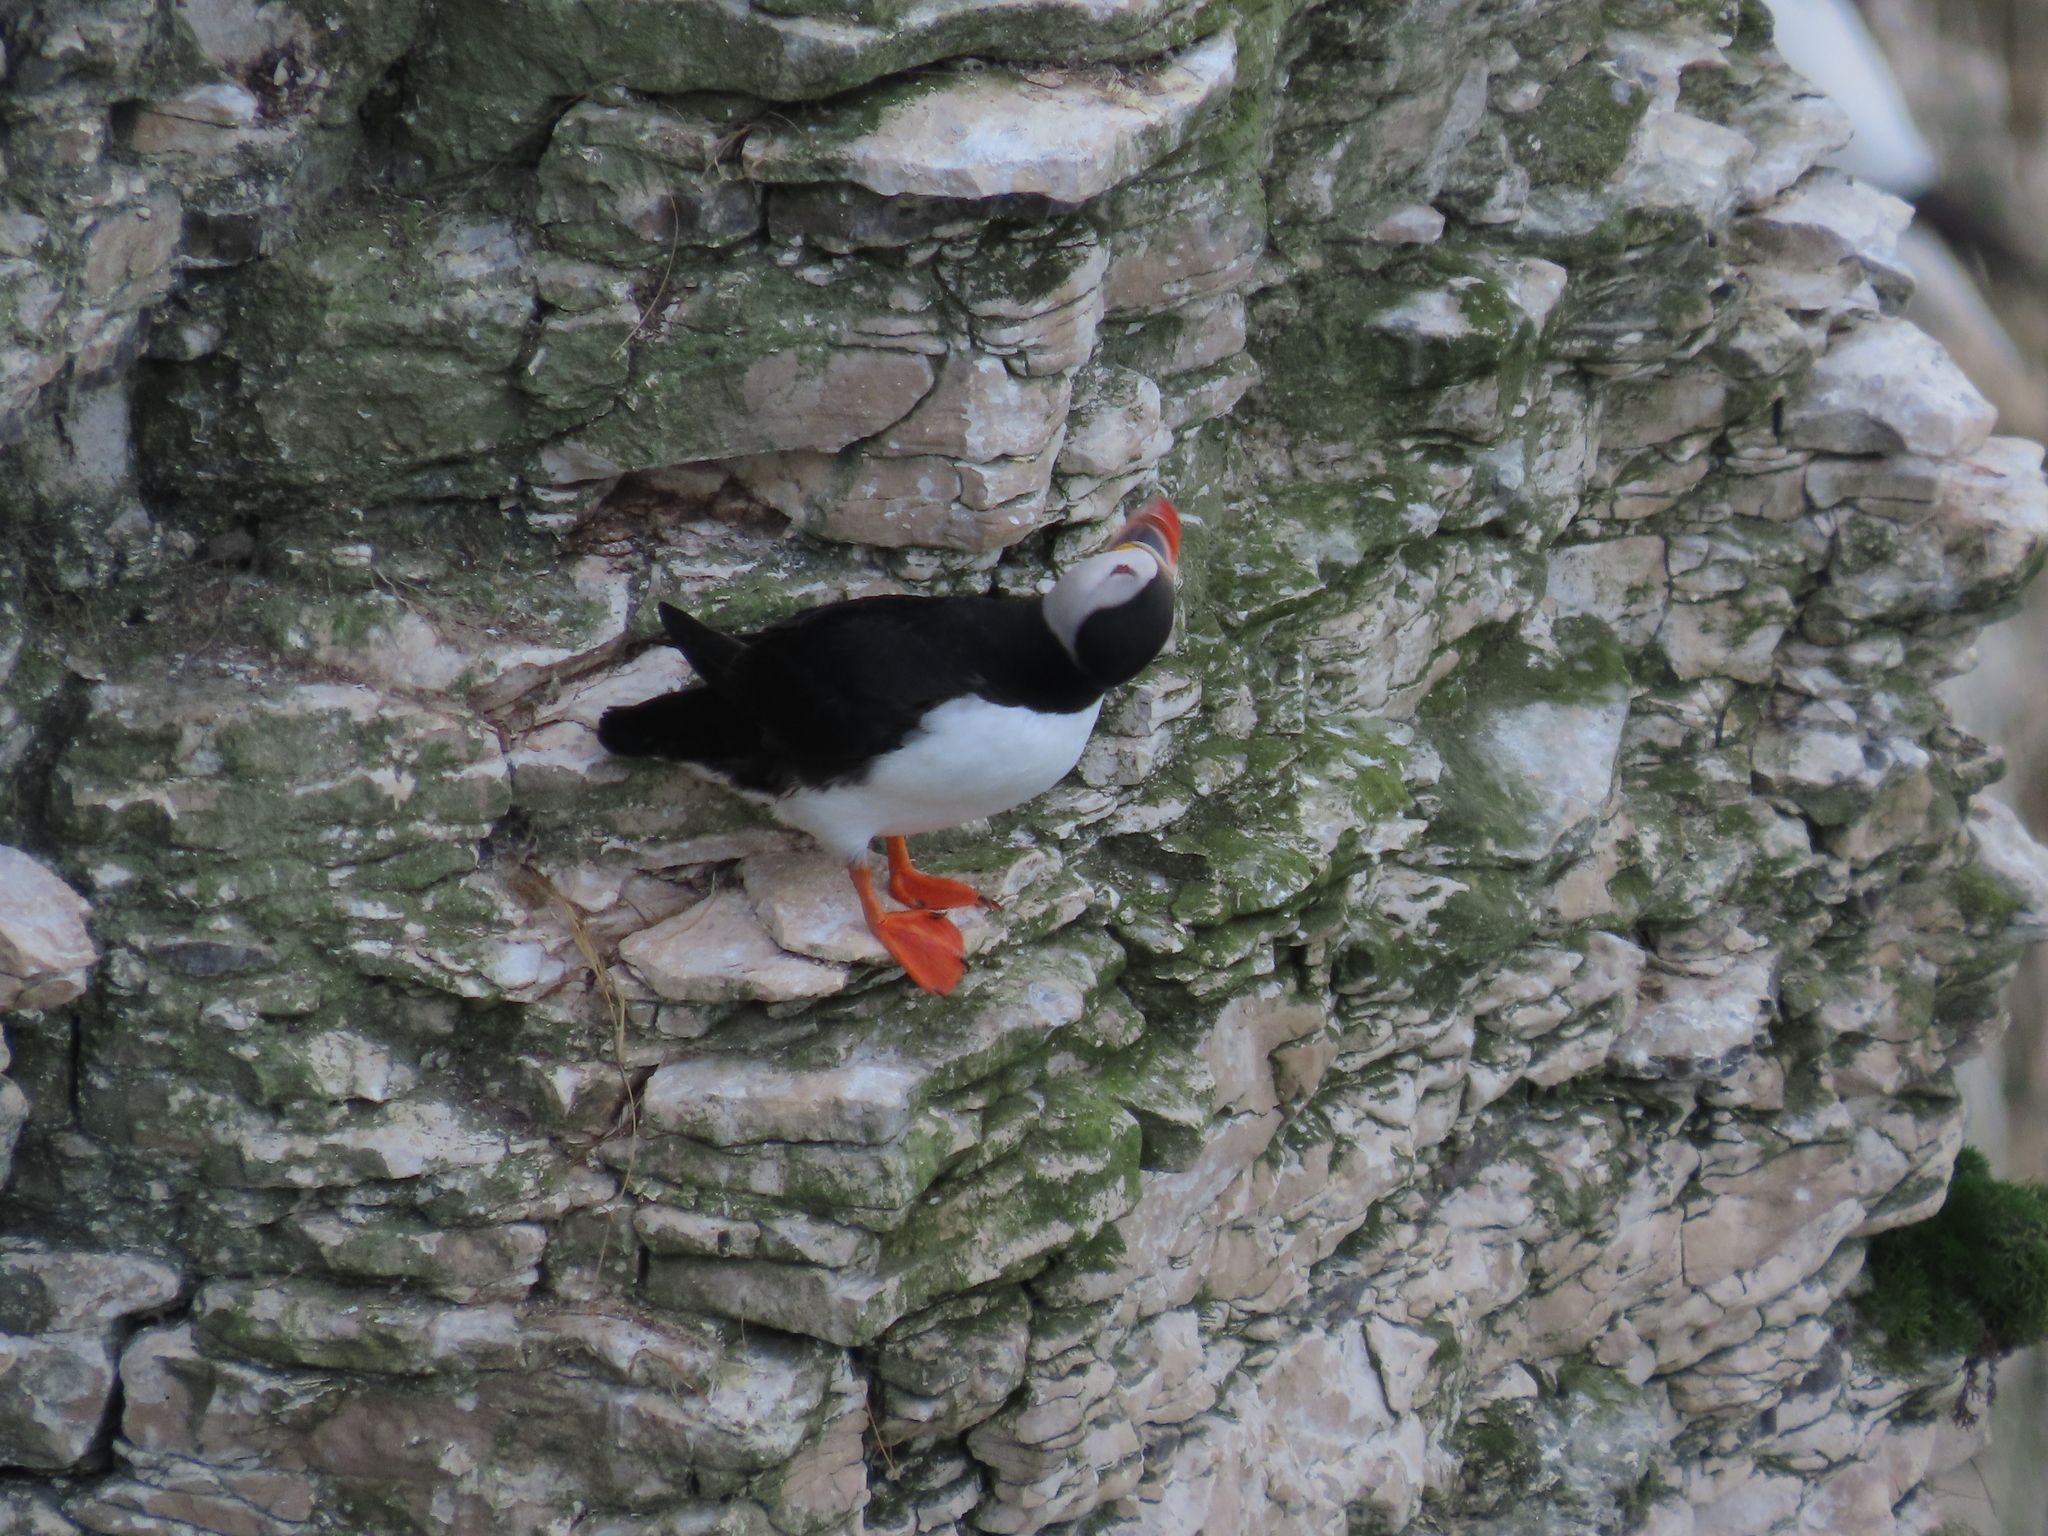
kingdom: Animalia
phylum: Chordata
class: Aves
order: Charadriiformes
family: Alcidae
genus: Fratercula
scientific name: Fratercula arctica
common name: Atlantic puffin
